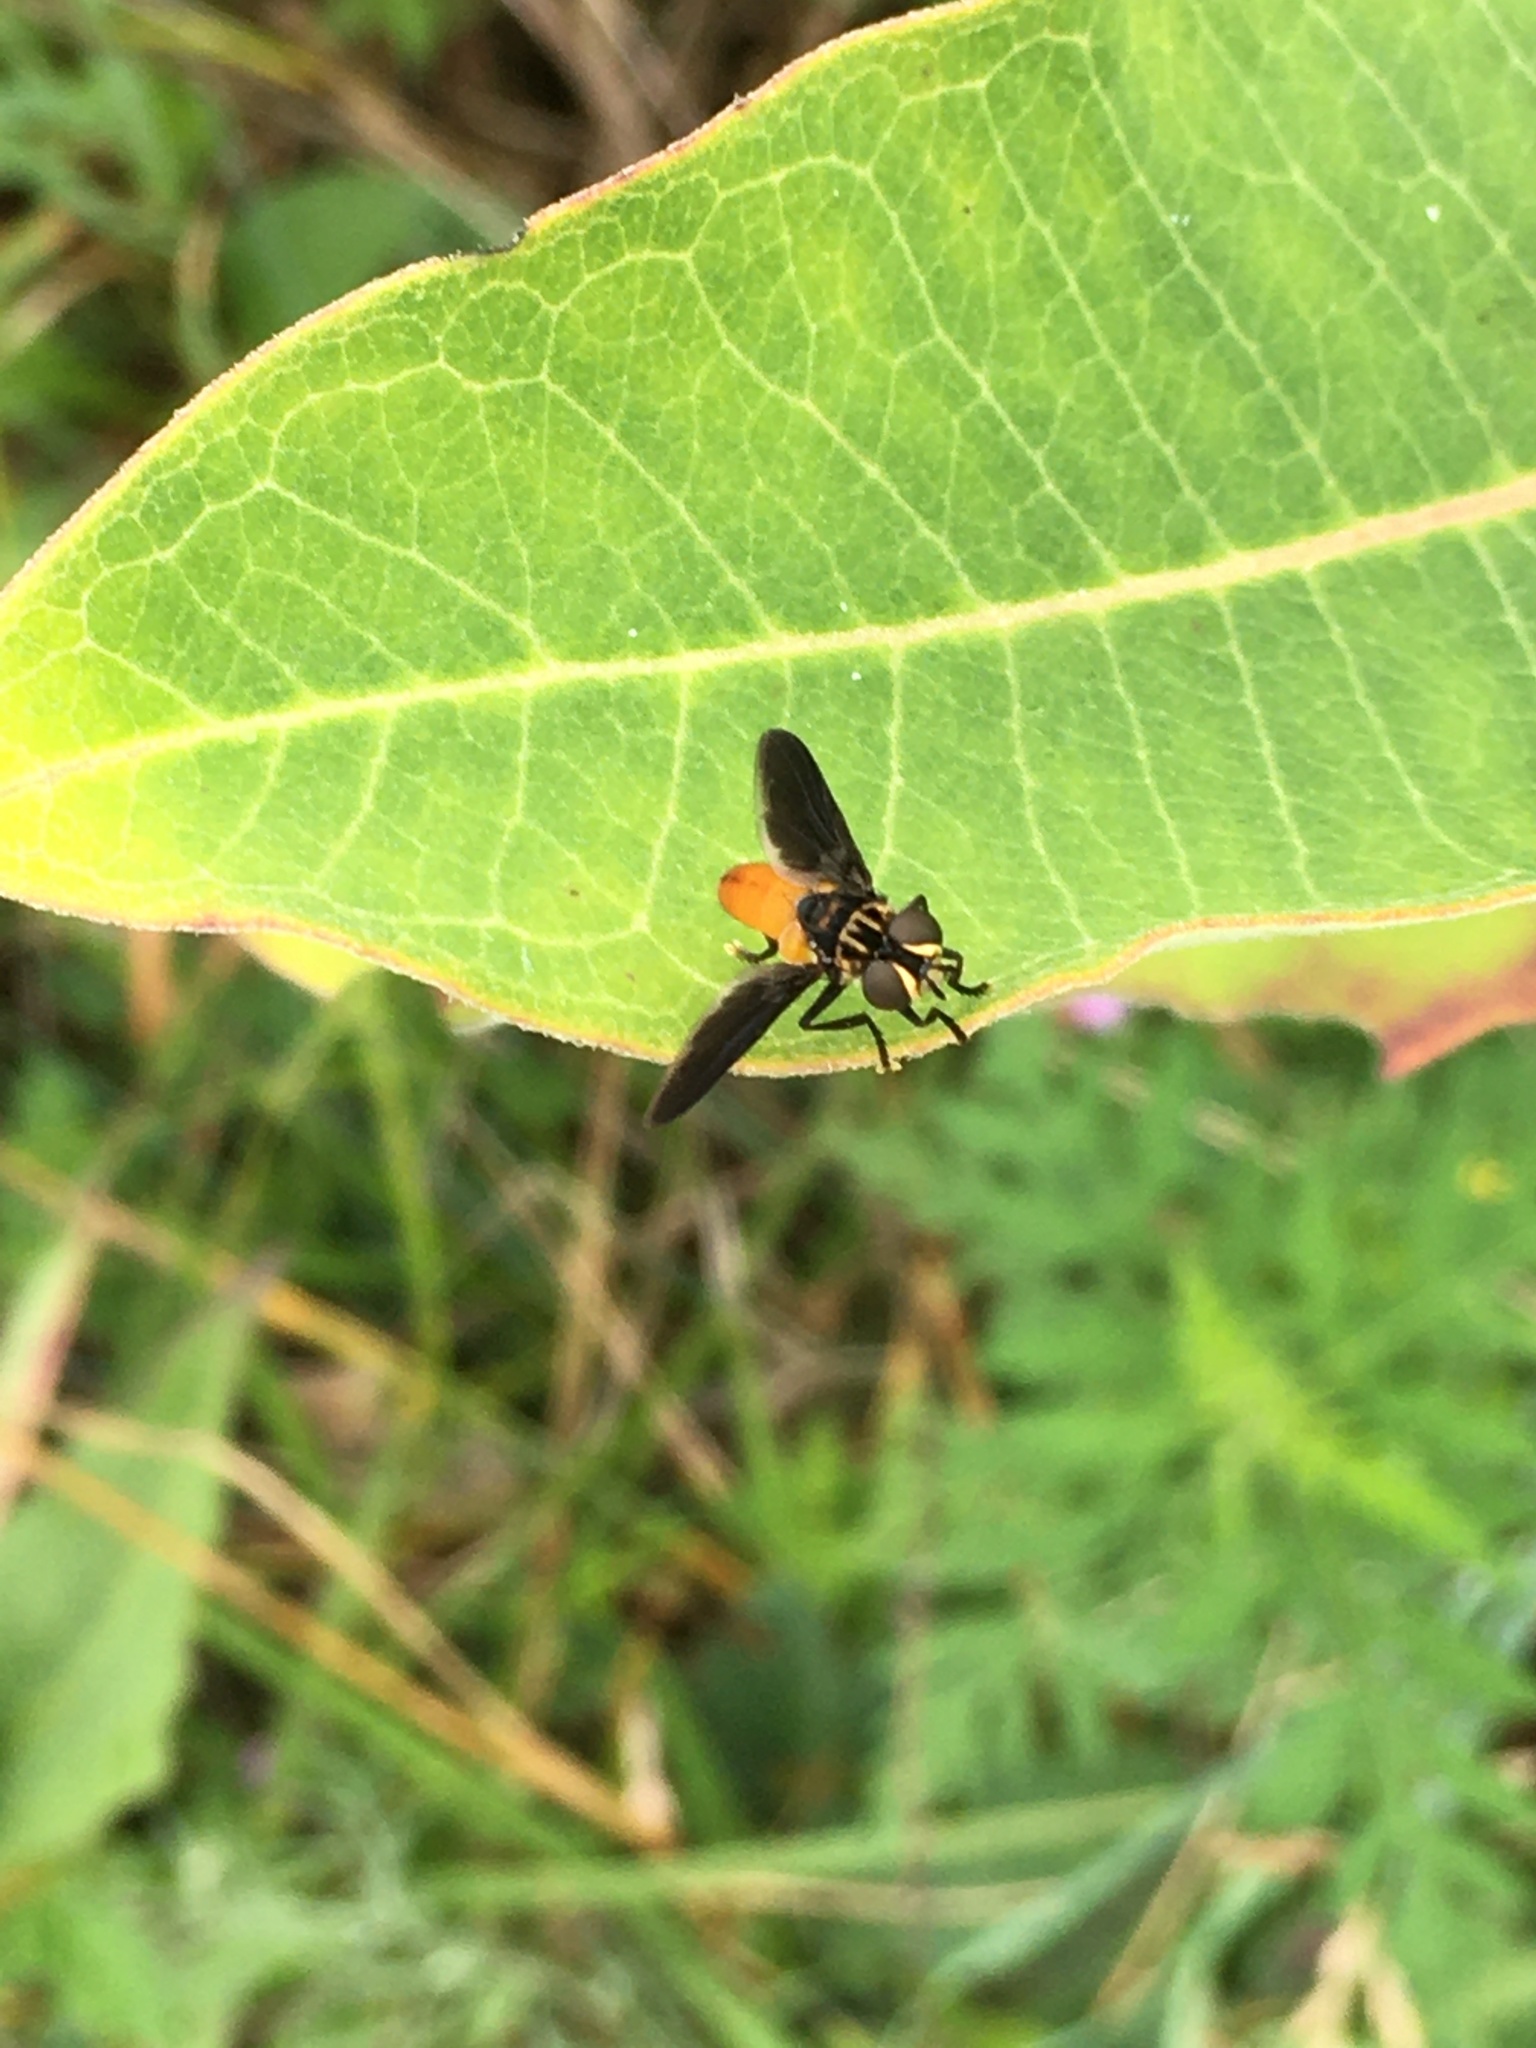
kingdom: Animalia
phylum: Arthropoda
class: Insecta
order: Diptera
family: Tachinidae
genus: Trichopoda
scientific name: Trichopoda pennipes
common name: Tachinid fly
